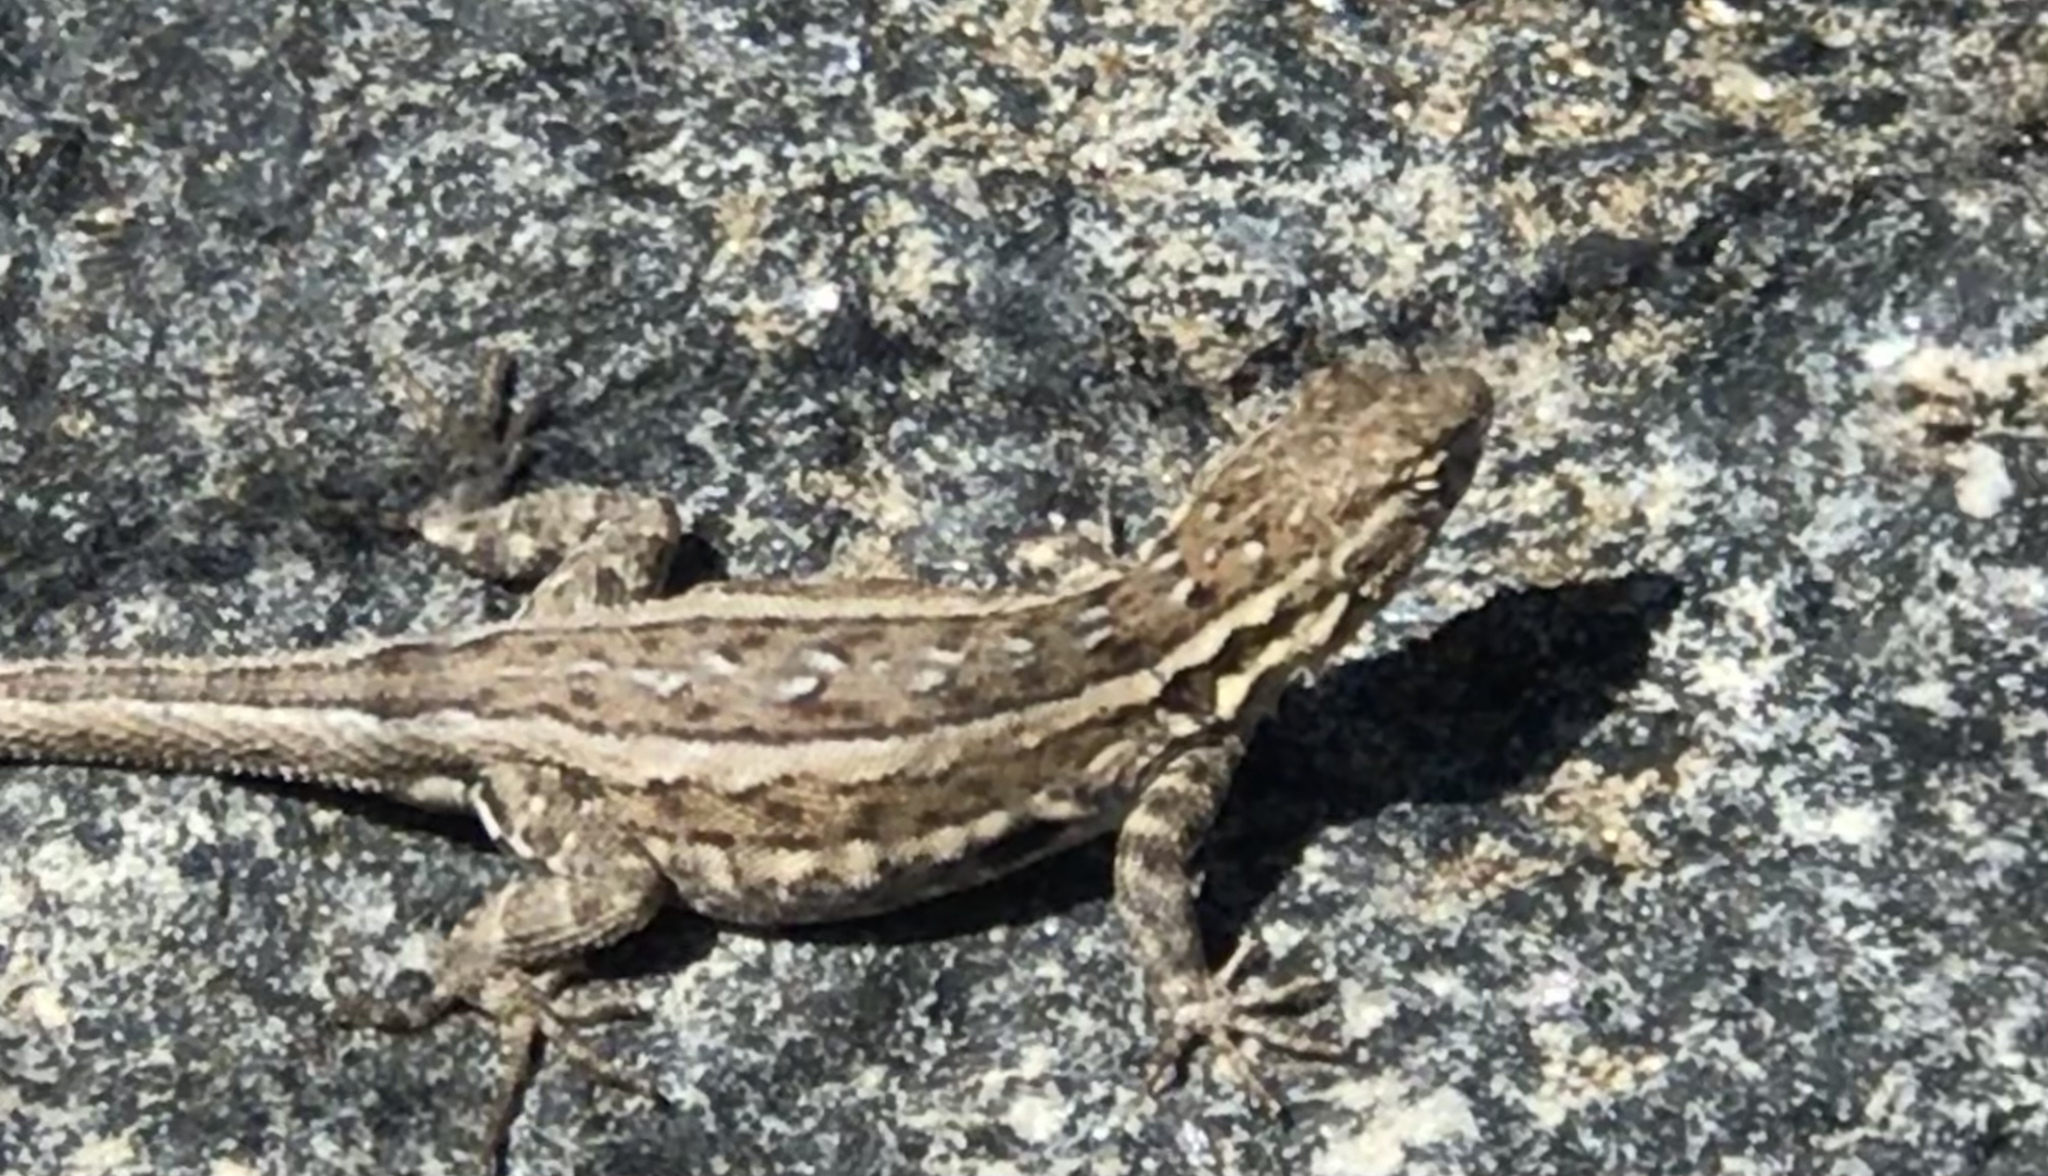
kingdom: Animalia
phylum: Chordata
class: Squamata
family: Phrynosomatidae
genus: Uta
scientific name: Uta stansburiana
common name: Side-blotched lizard
